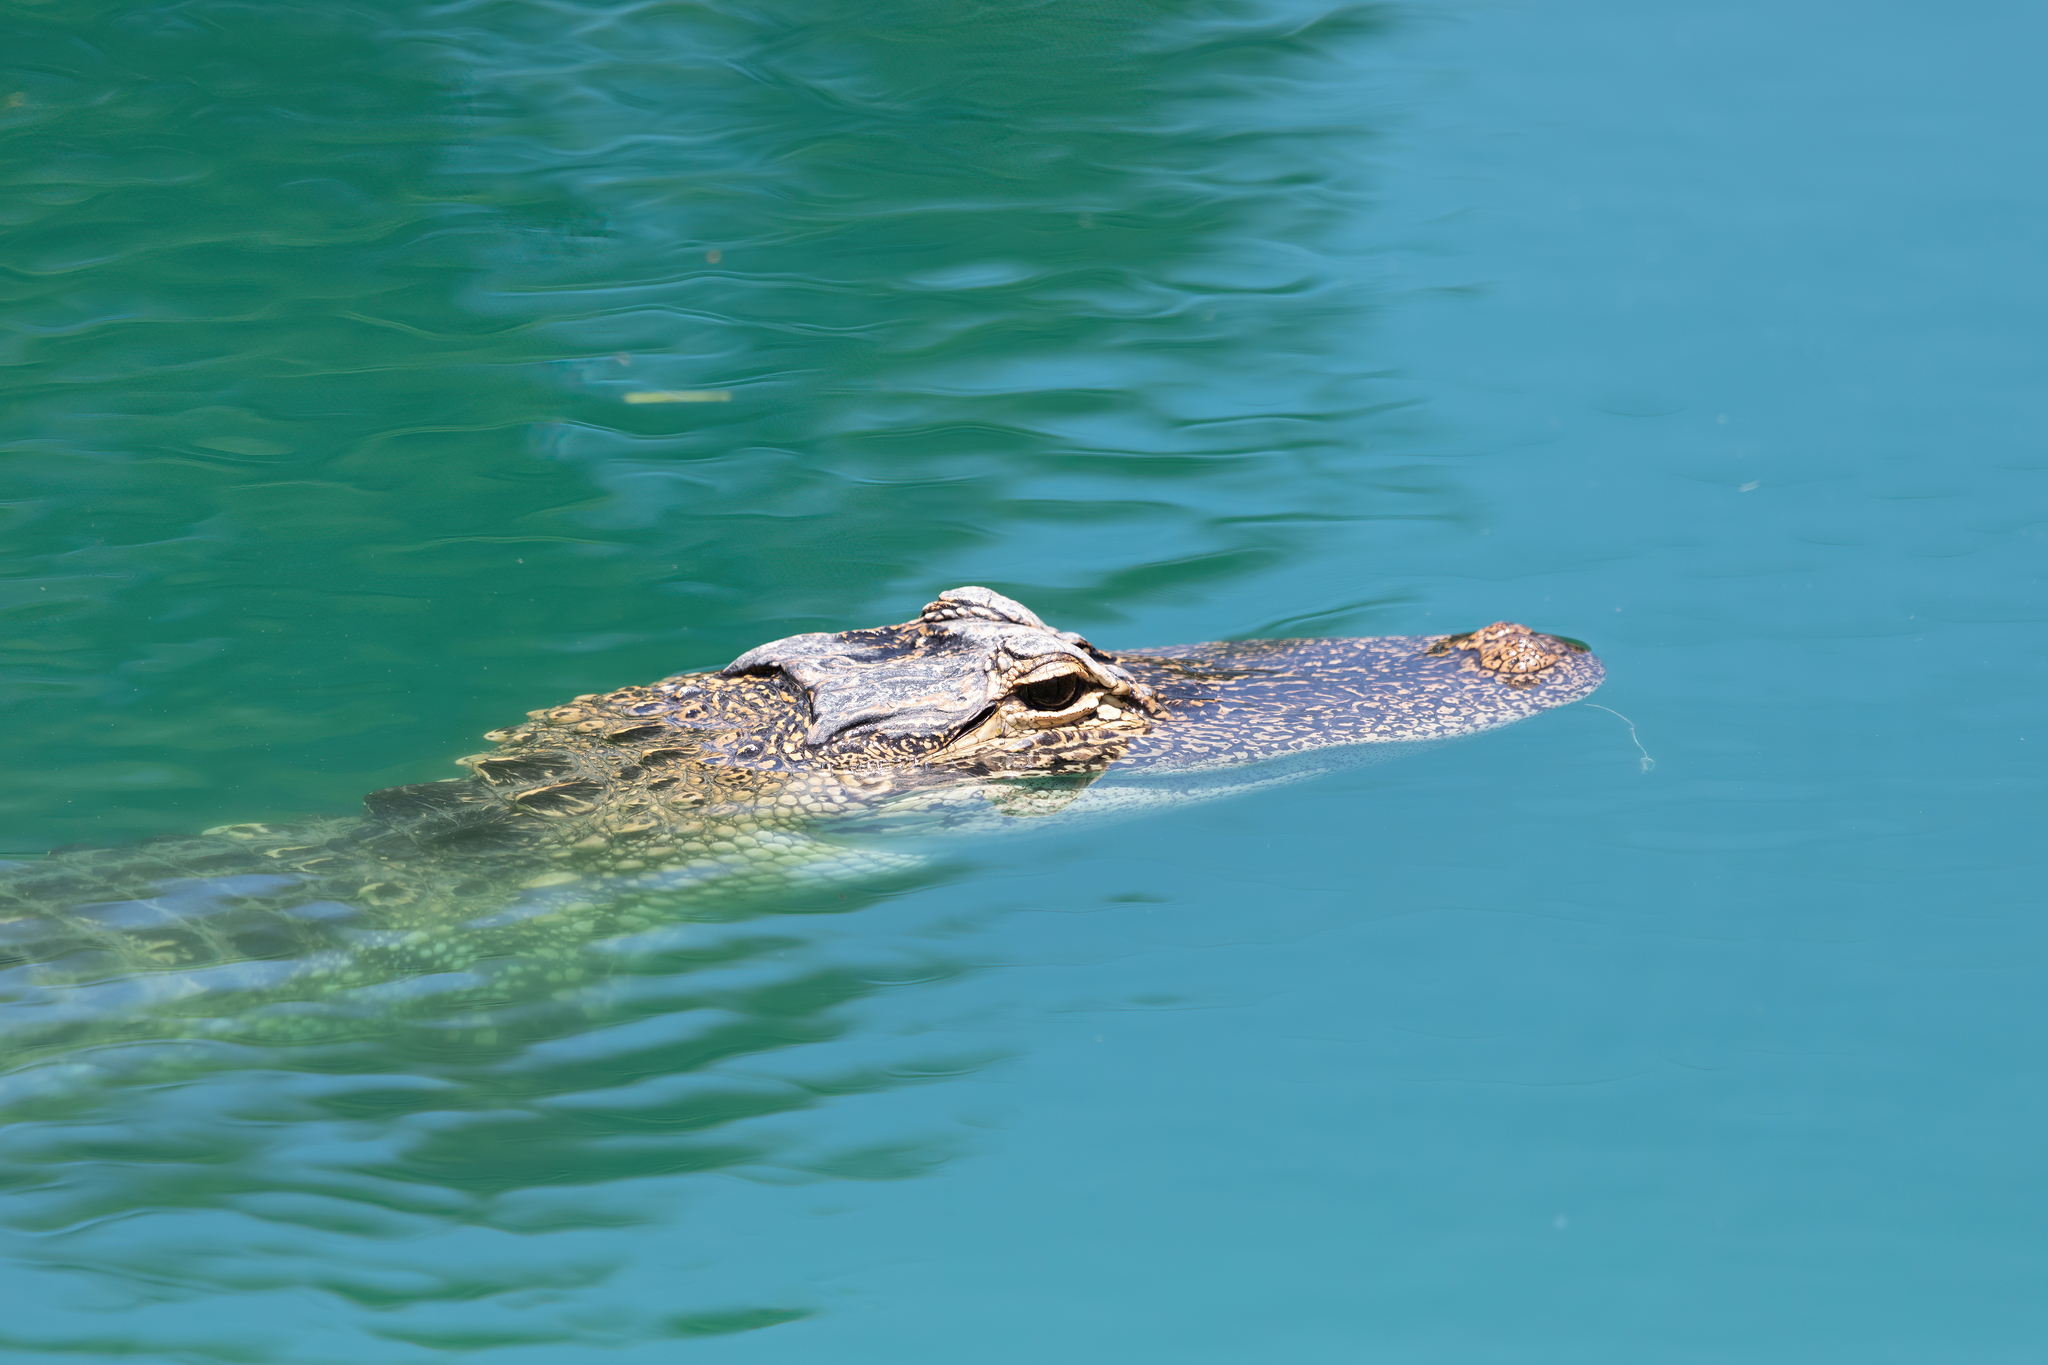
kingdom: Animalia
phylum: Chordata
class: Crocodylia
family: Alligatoridae
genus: Alligator
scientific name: Alligator mississippiensis
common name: American alligator
